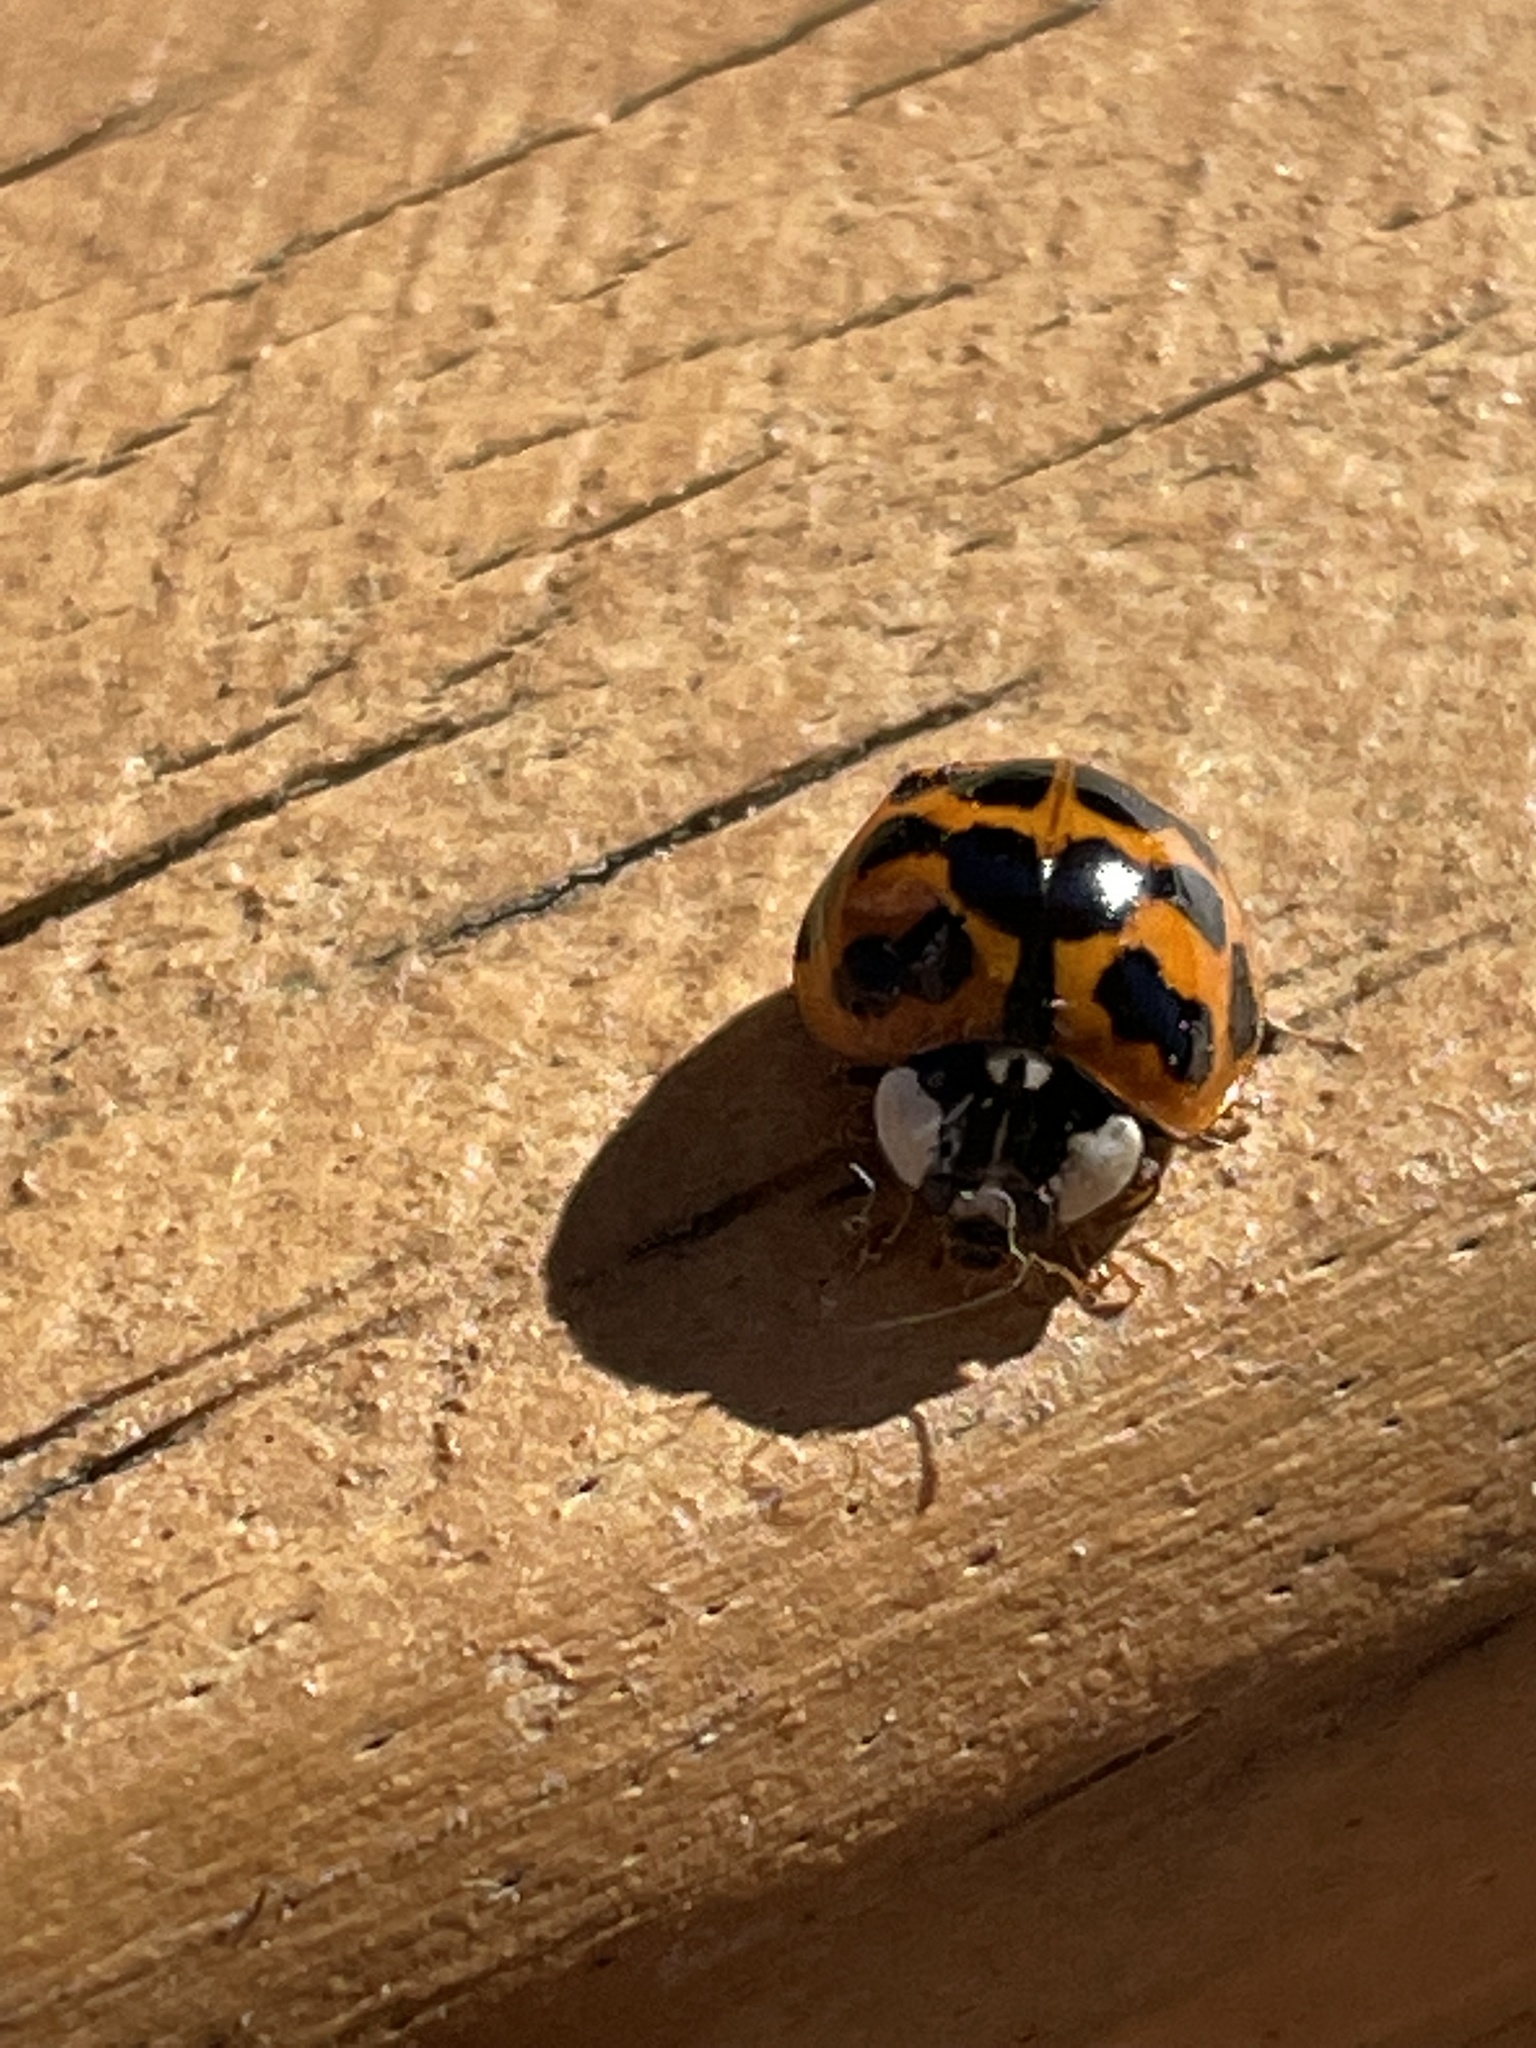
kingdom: Animalia
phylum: Arthropoda
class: Insecta
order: Coleoptera
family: Coccinellidae
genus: Harmonia
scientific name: Harmonia axyridis
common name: Harlequin ladybird
